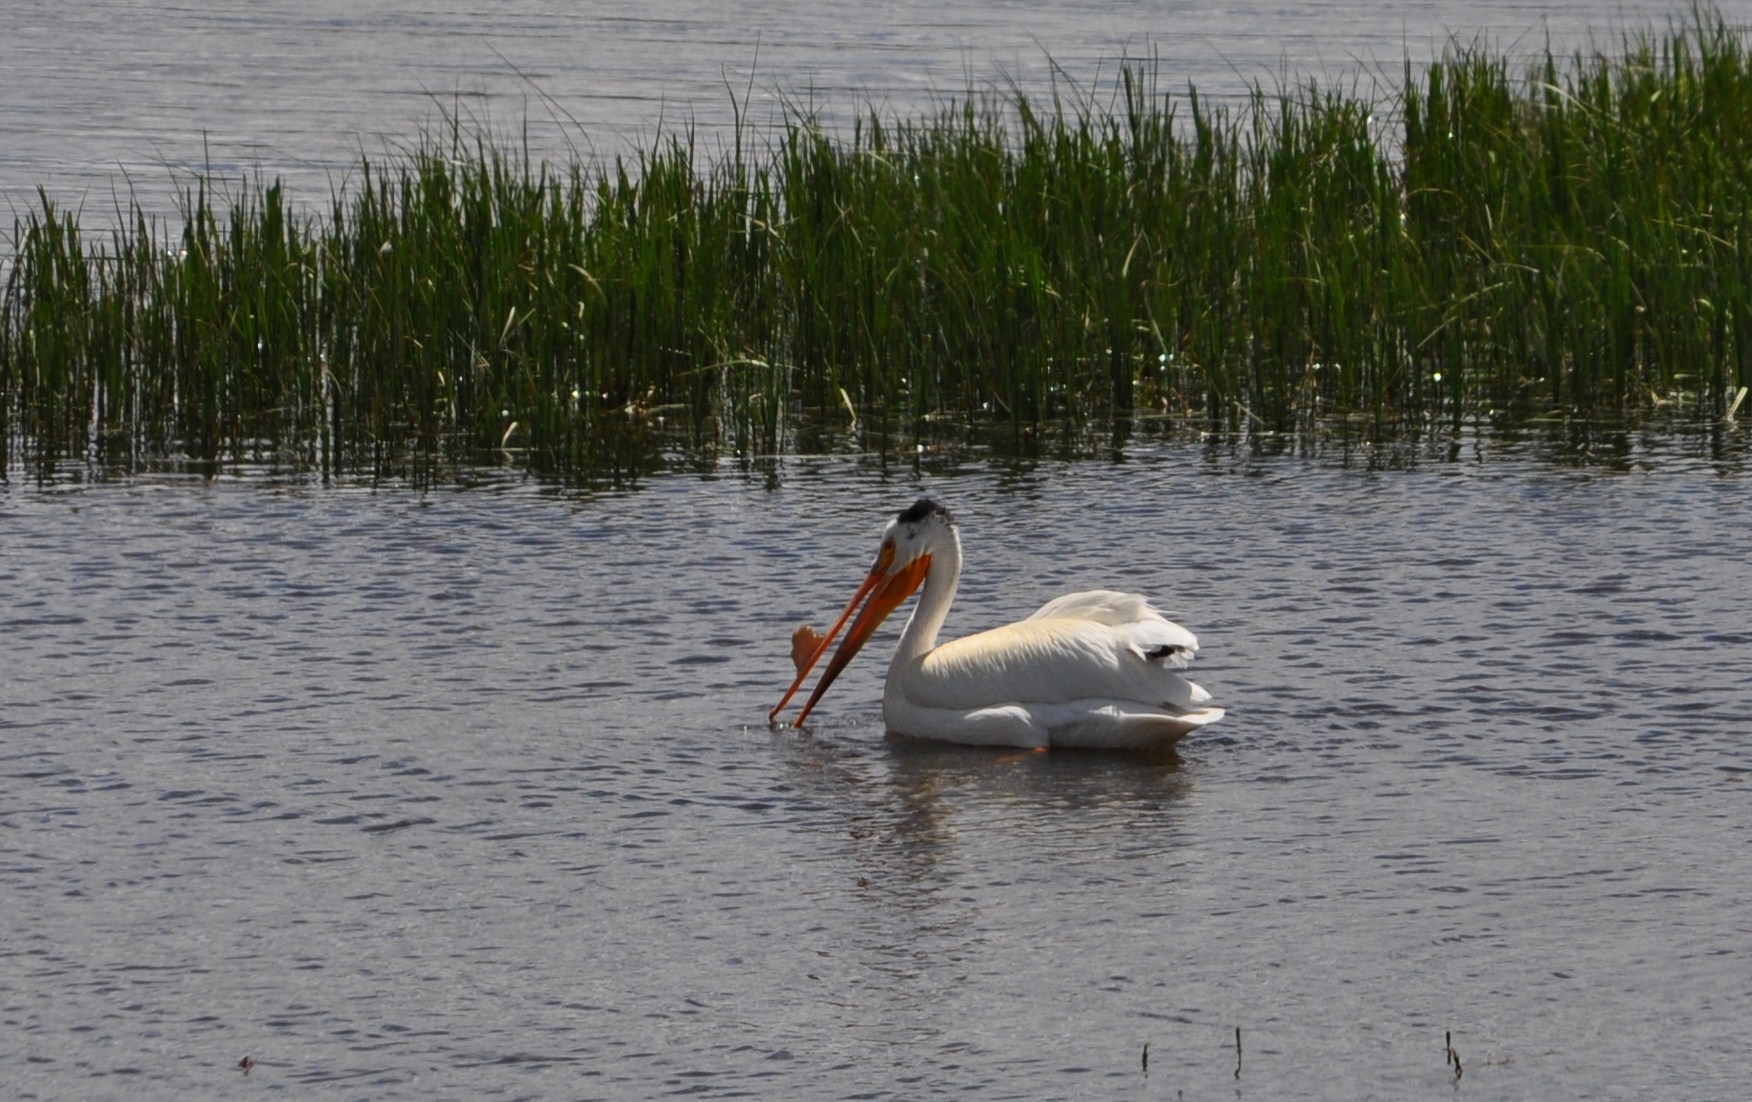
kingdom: Animalia
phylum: Chordata
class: Aves
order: Pelecaniformes
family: Pelecanidae
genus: Pelecanus
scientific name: Pelecanus erythrorhynchos
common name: American white pelican
